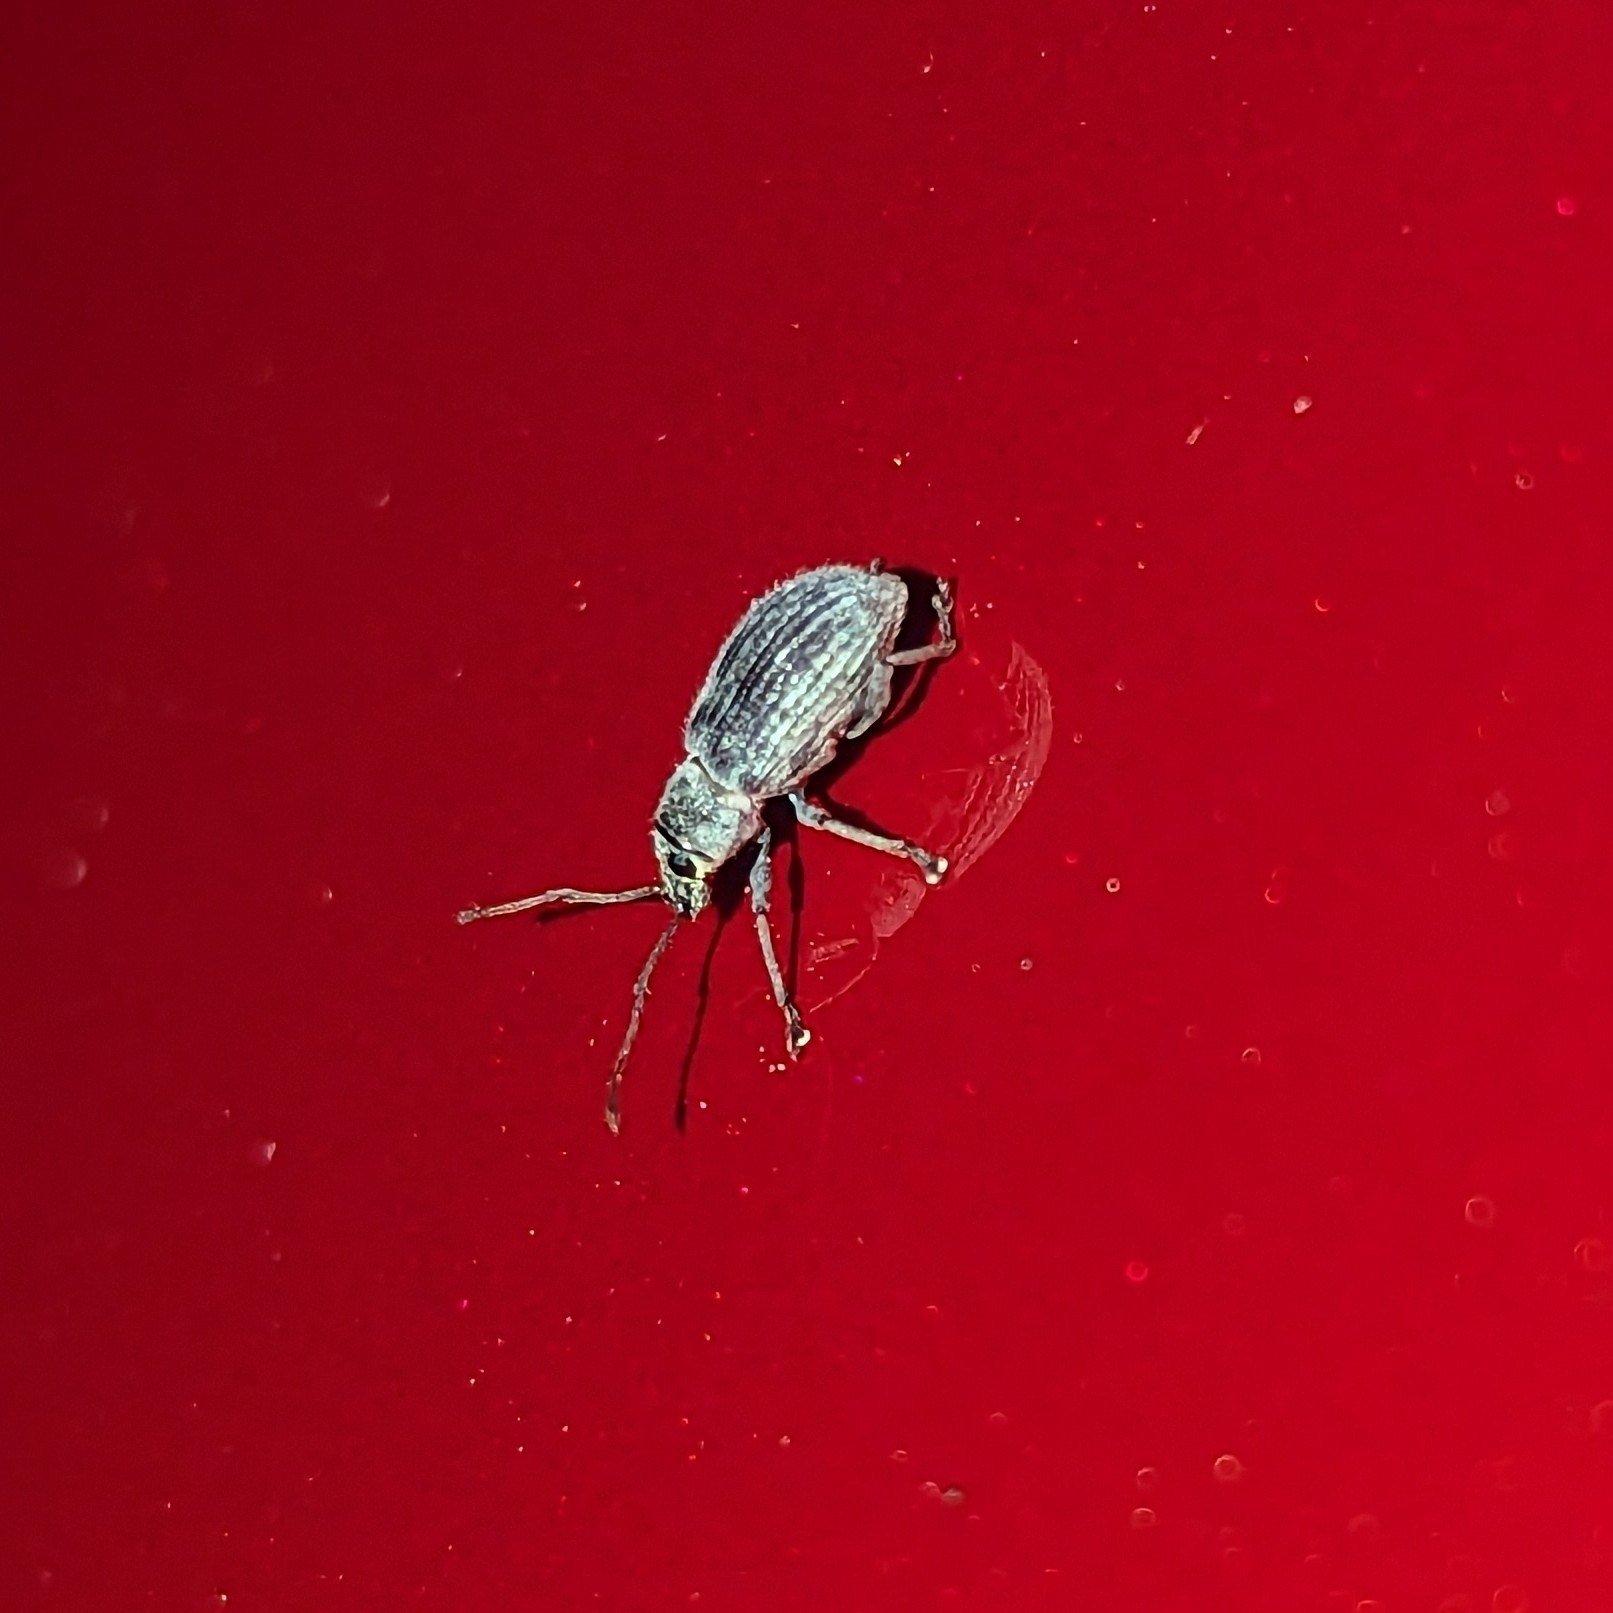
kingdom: Animalia
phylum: Arthropoda
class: Insecta
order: Coleoptera
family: Curculionidae
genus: Cyrtepistomus
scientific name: Cyrtepistomus castaneus
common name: Weevil
